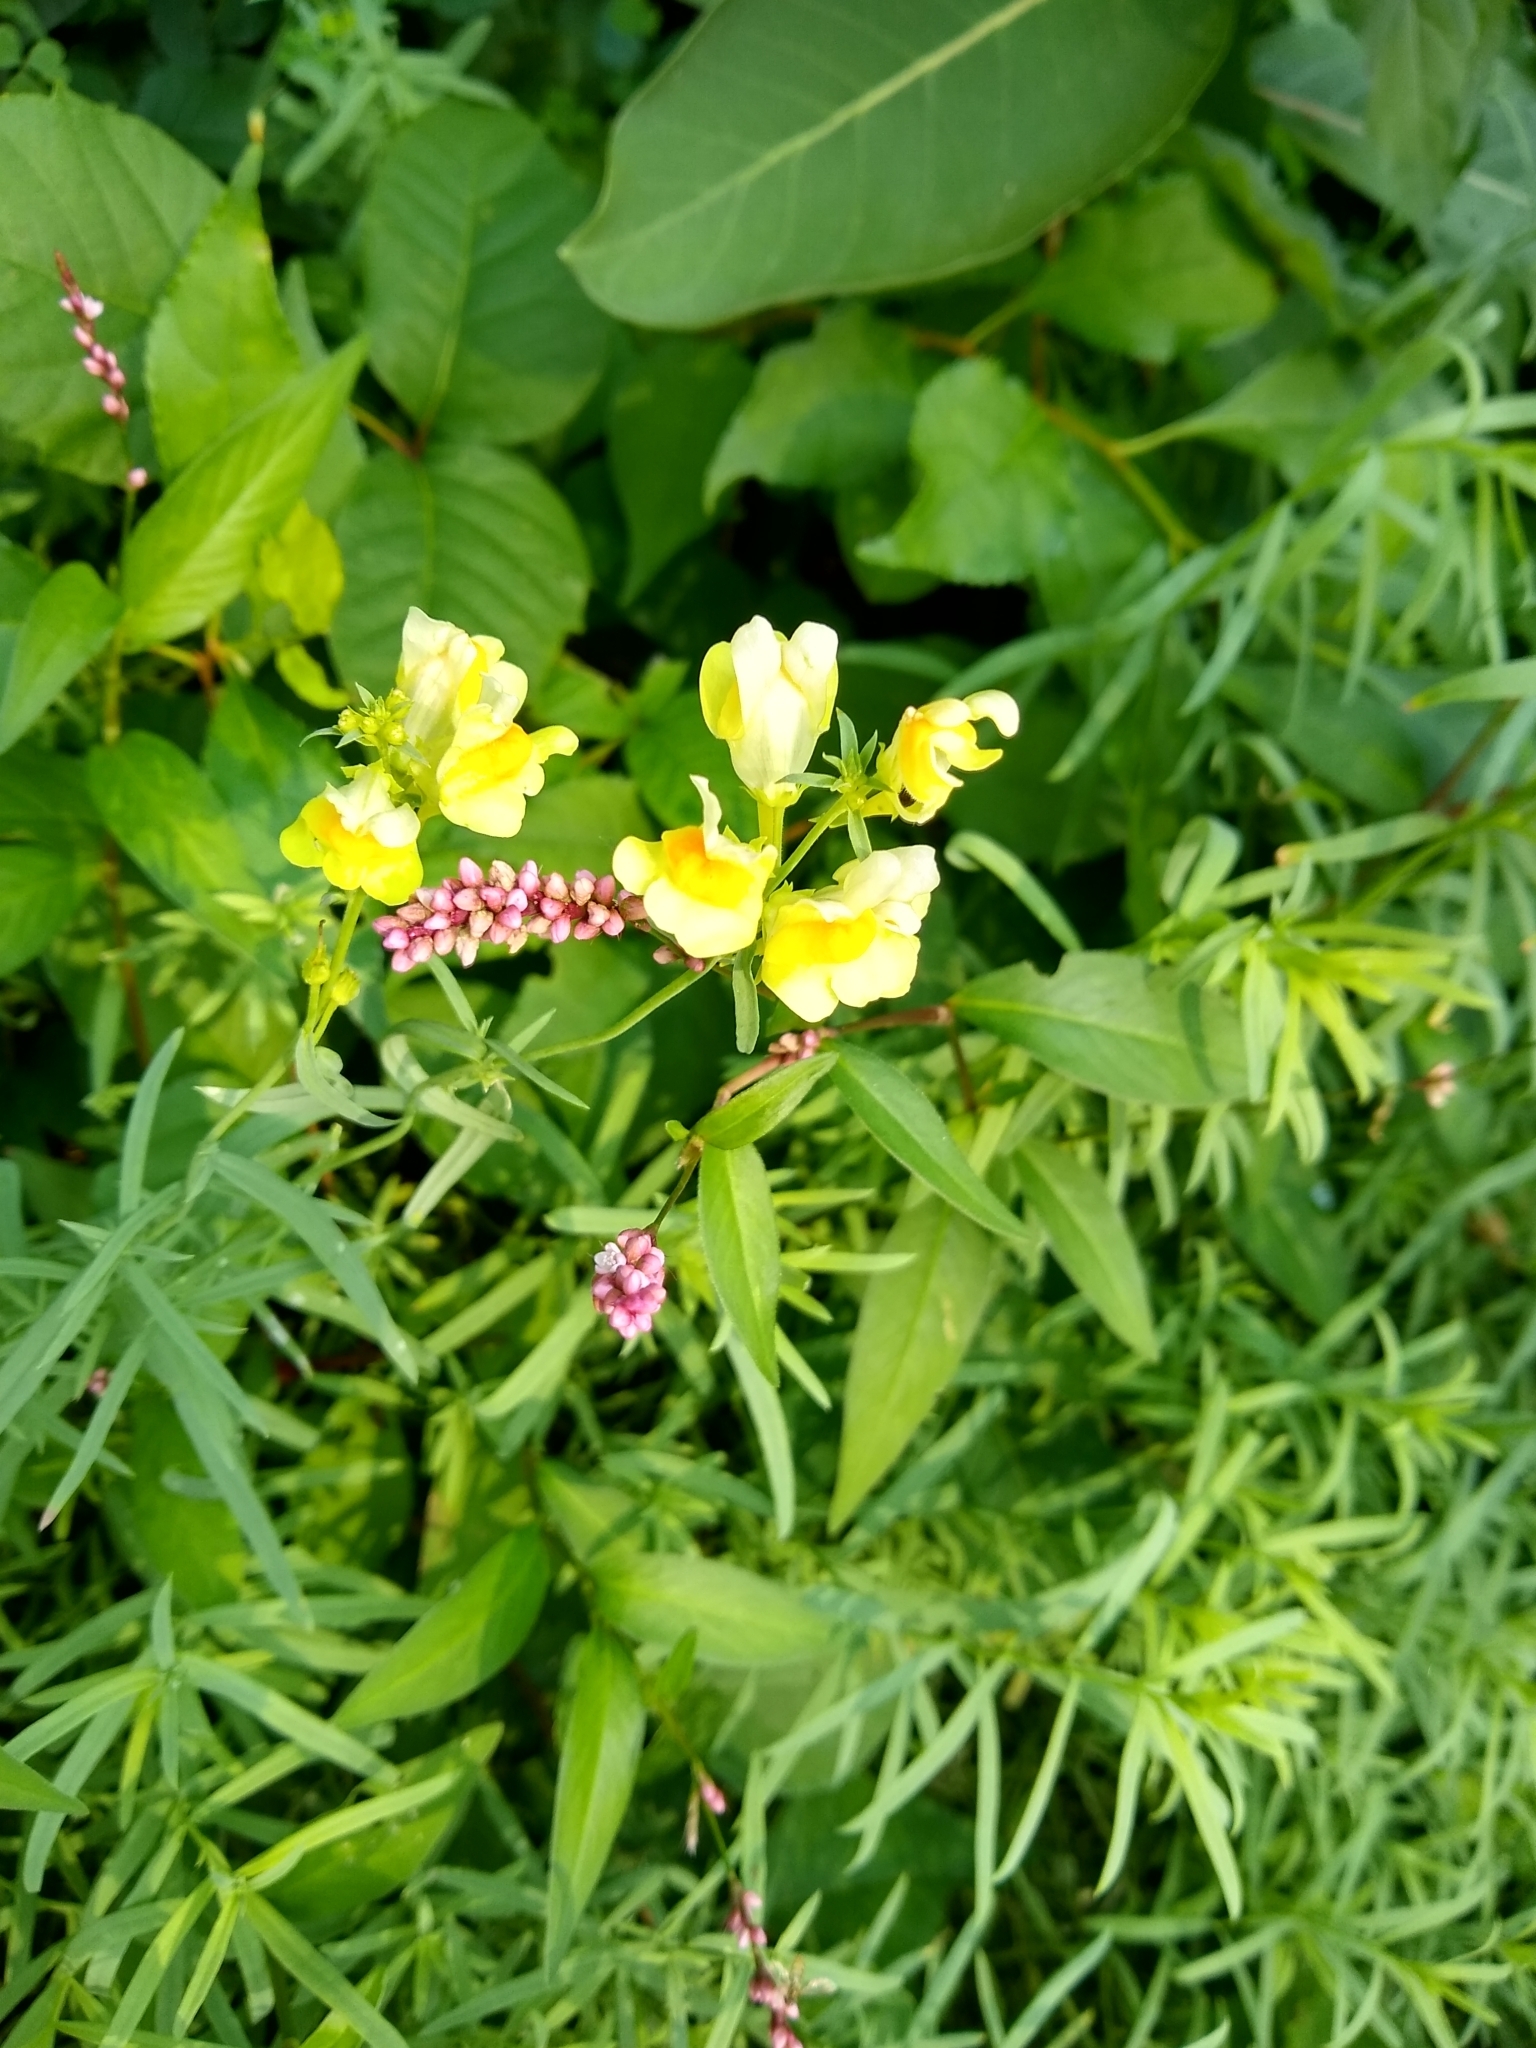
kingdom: Plantae
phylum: Tracheophyta
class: Magnoliopsida
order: Lamiales
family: Plantaginaceae
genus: Linaria
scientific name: Linaria vulgaris
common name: Butter and eggs
